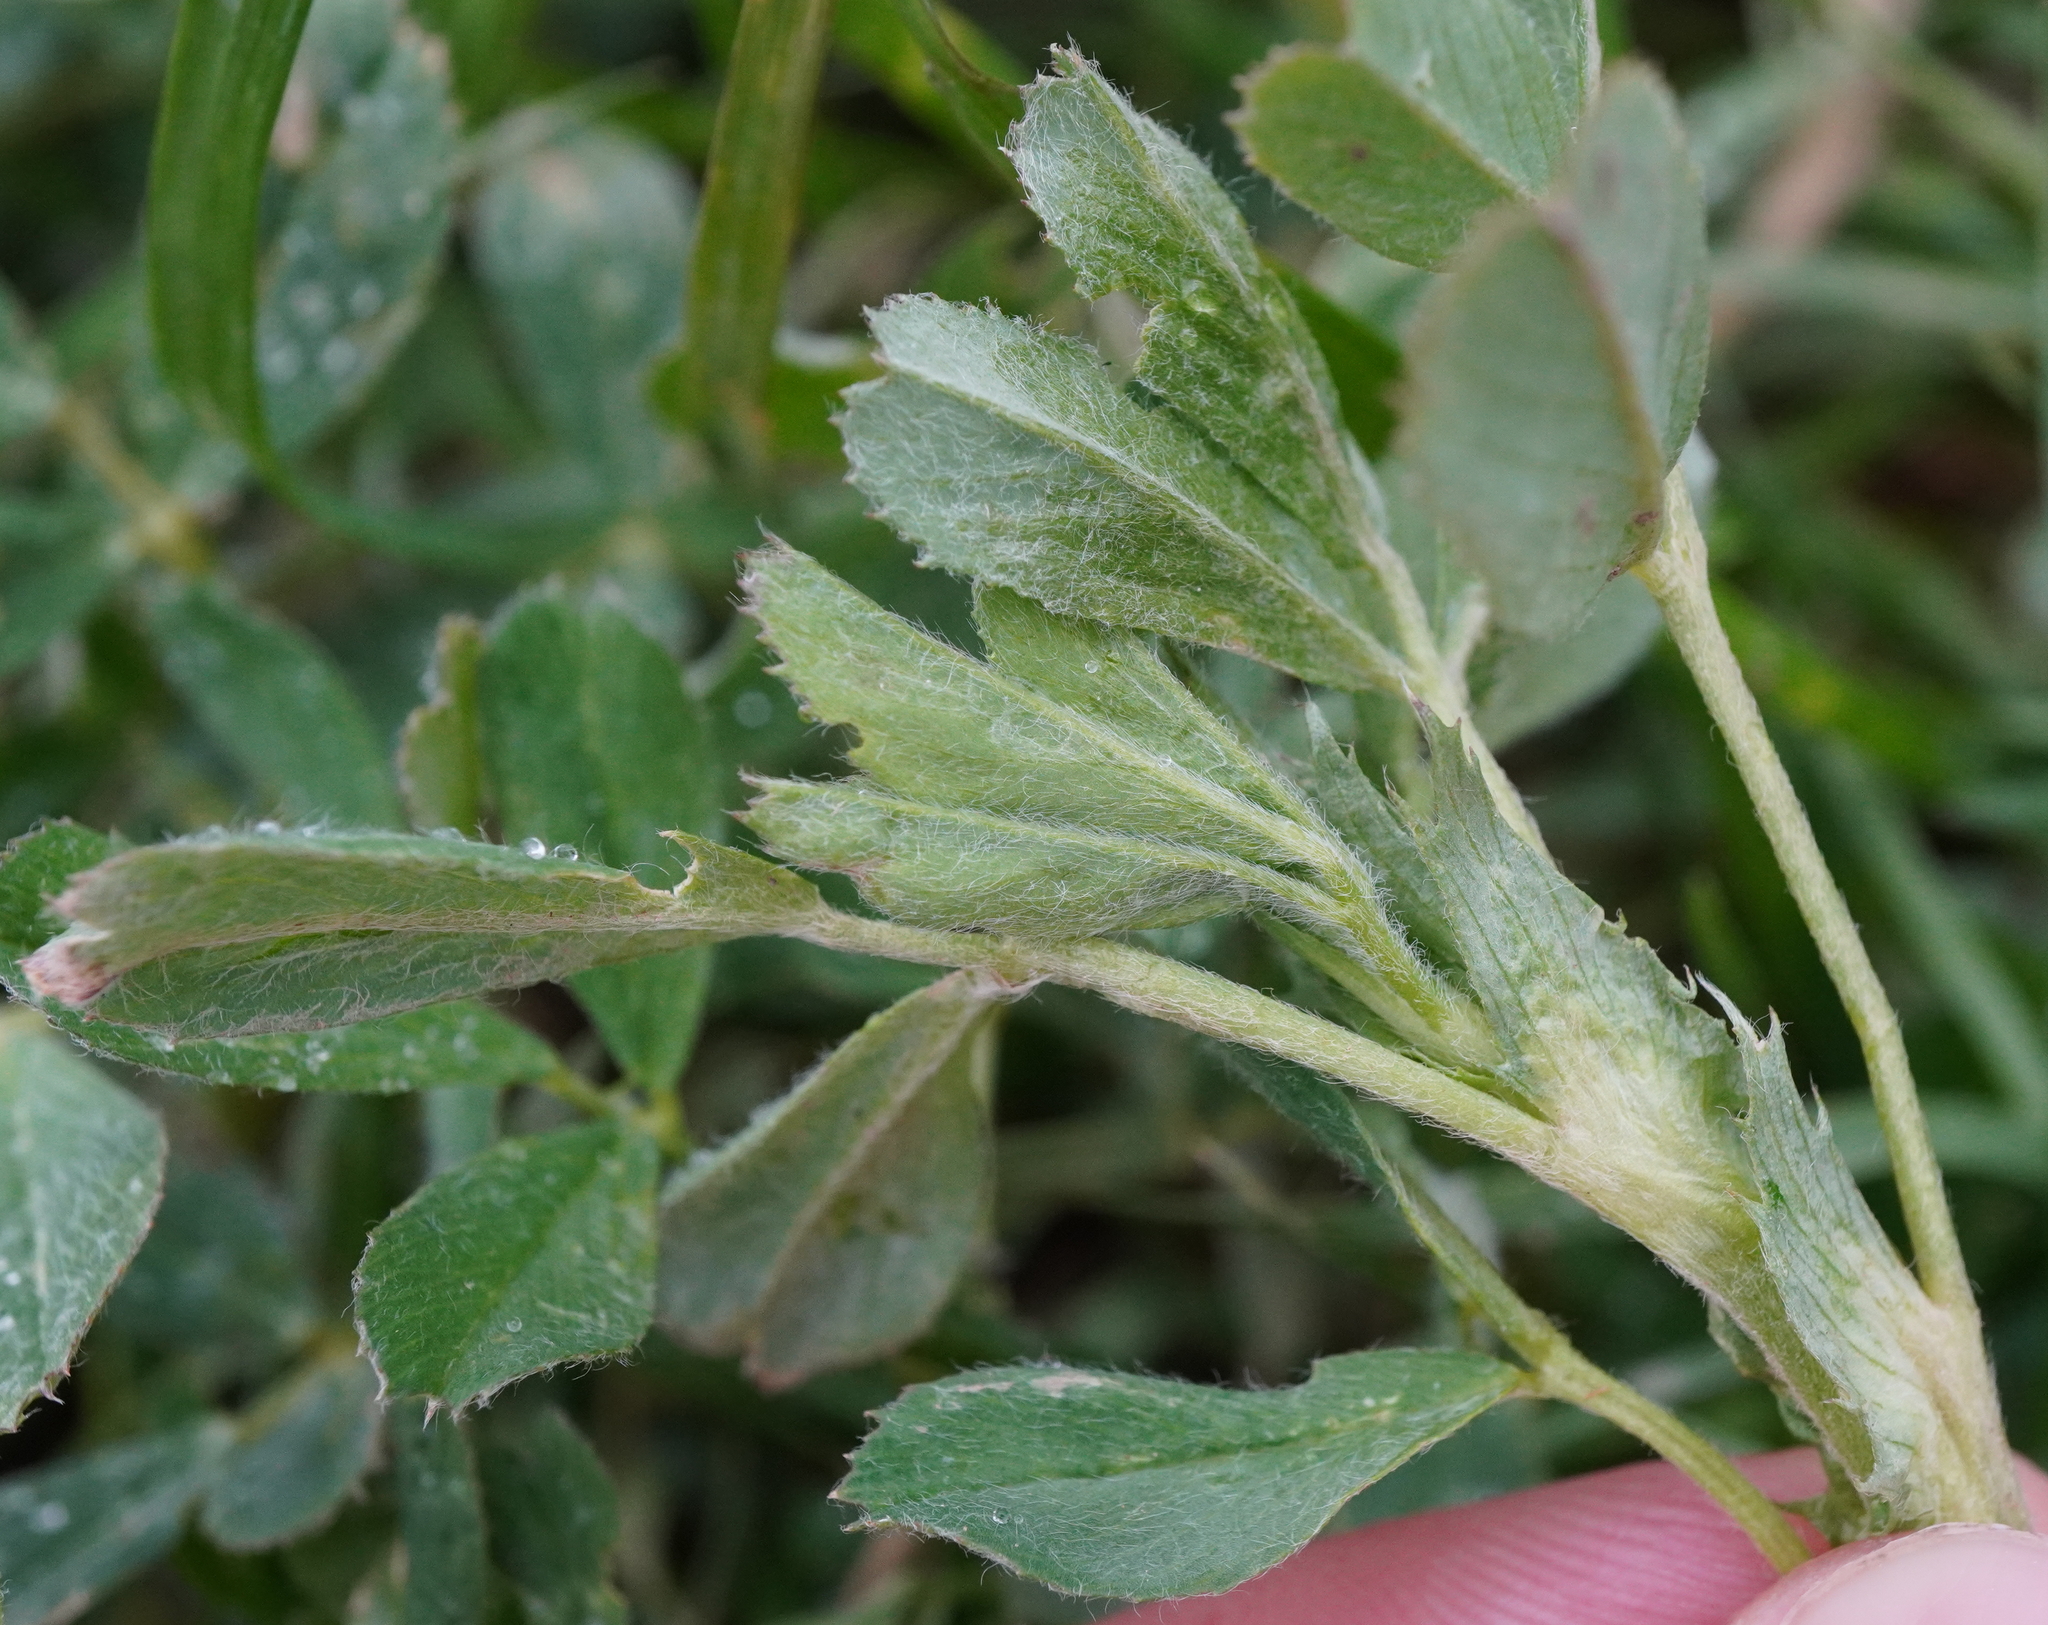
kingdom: Plantae
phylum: Tracheophyta
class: Magnoliopsida
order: Fabales
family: Fabaceae
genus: Medicago
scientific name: Medicago
